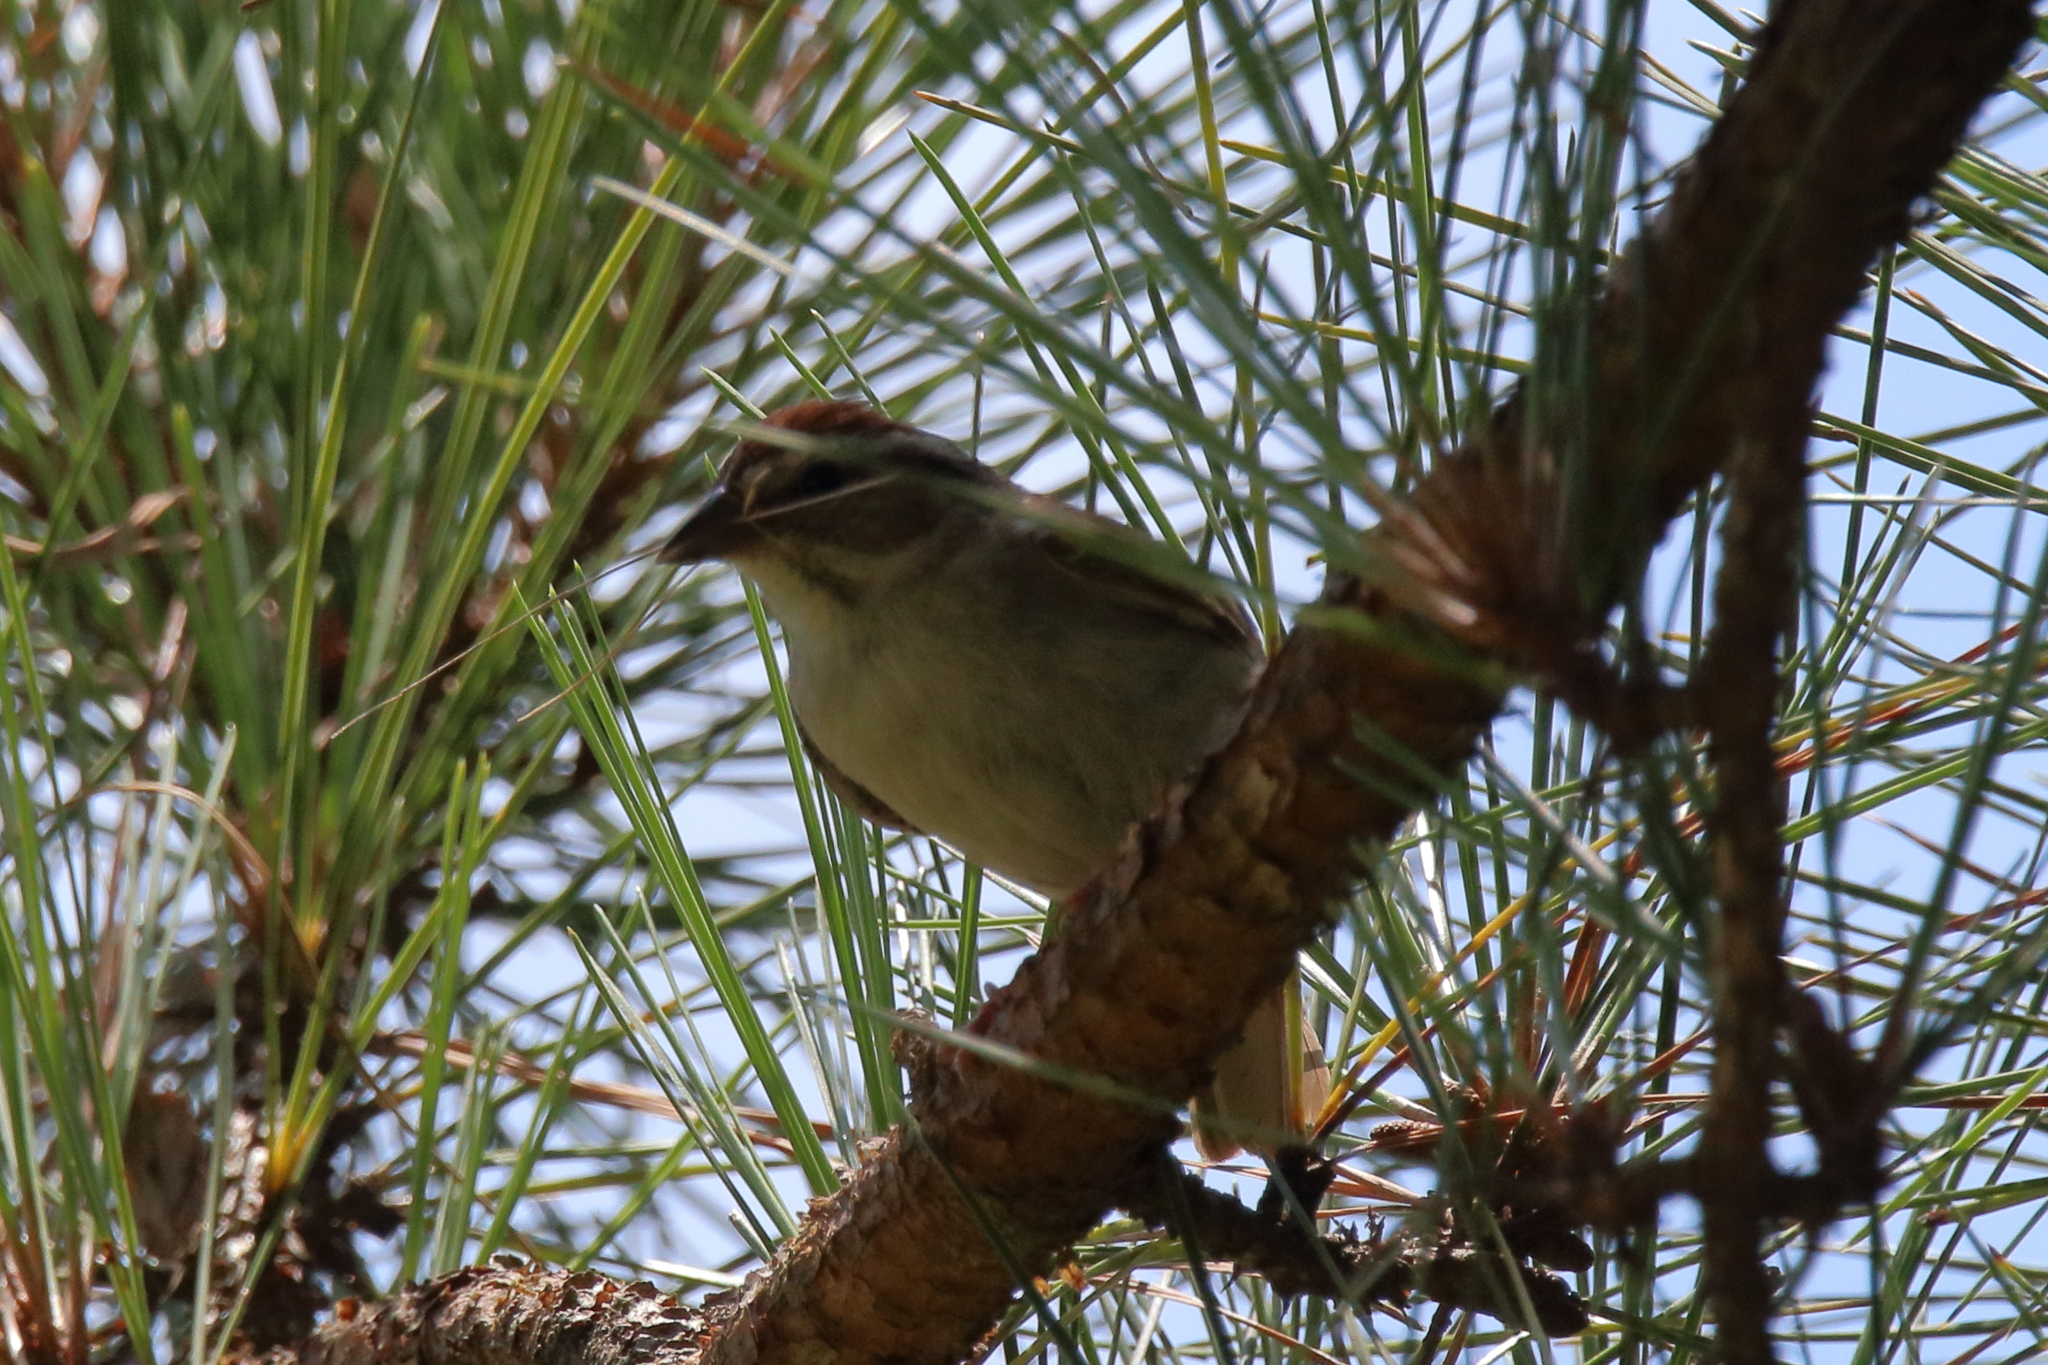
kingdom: Animalia
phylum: Chordata
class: Aves
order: Passeriformes
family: Passerellidae
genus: Spizella
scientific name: Spizella passerina
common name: Chipping sparrow
